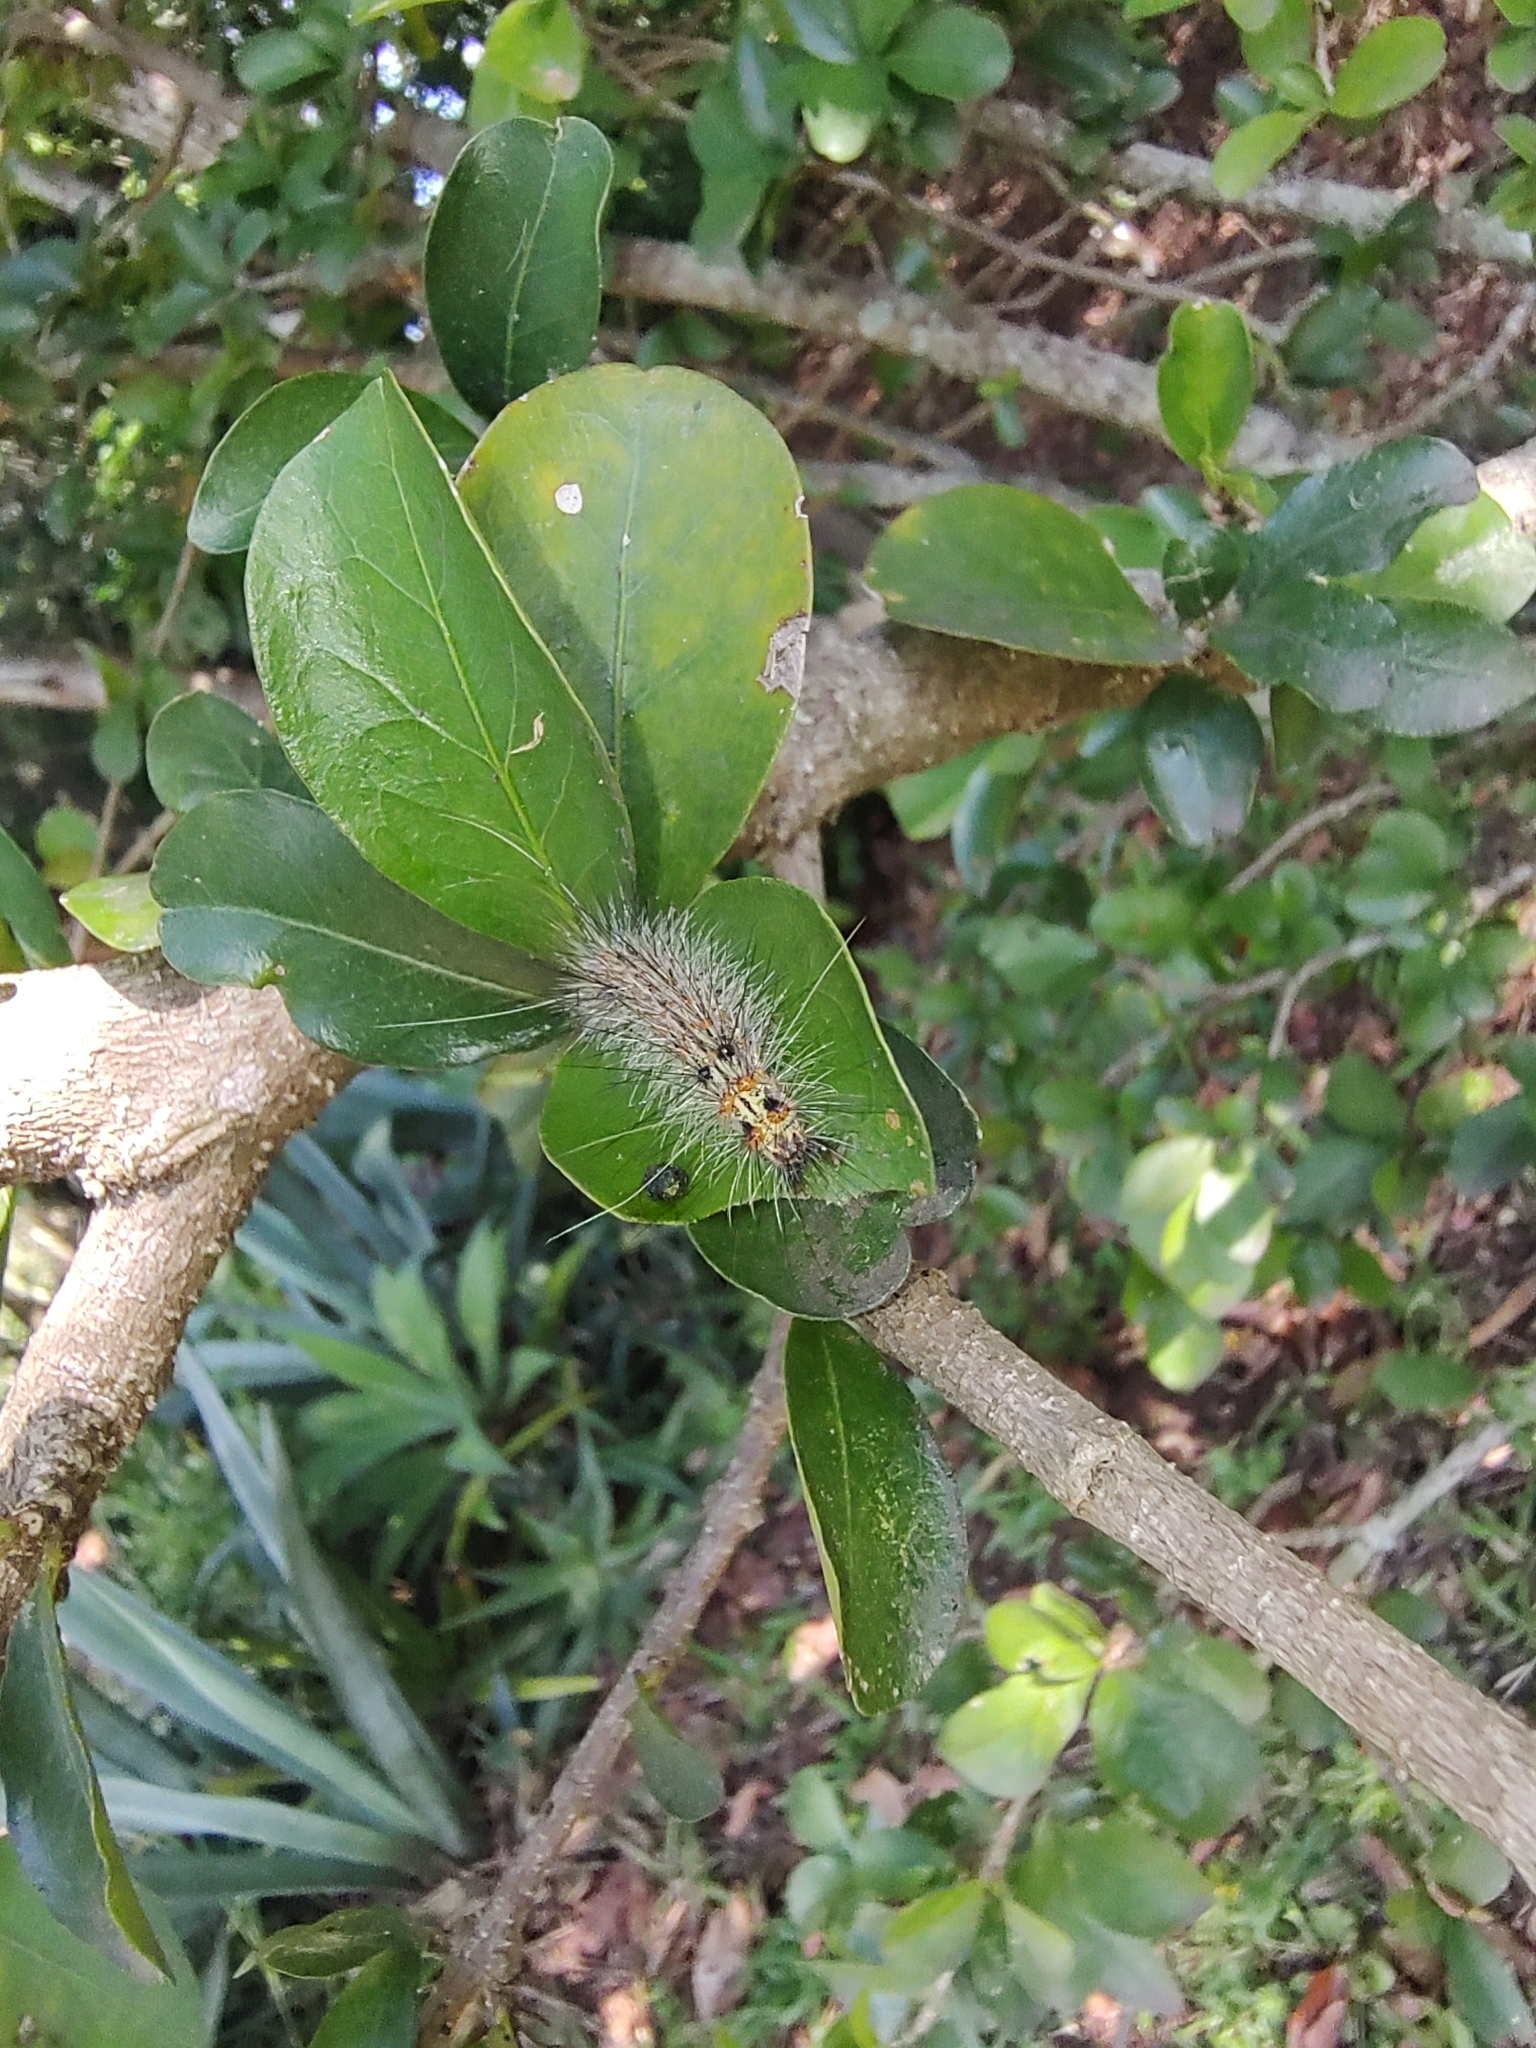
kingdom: Animalia
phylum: Arthropoda
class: Insecta
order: Lepidoptera
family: Erebidae
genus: Dysschema
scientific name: Dysschema sacrifica
